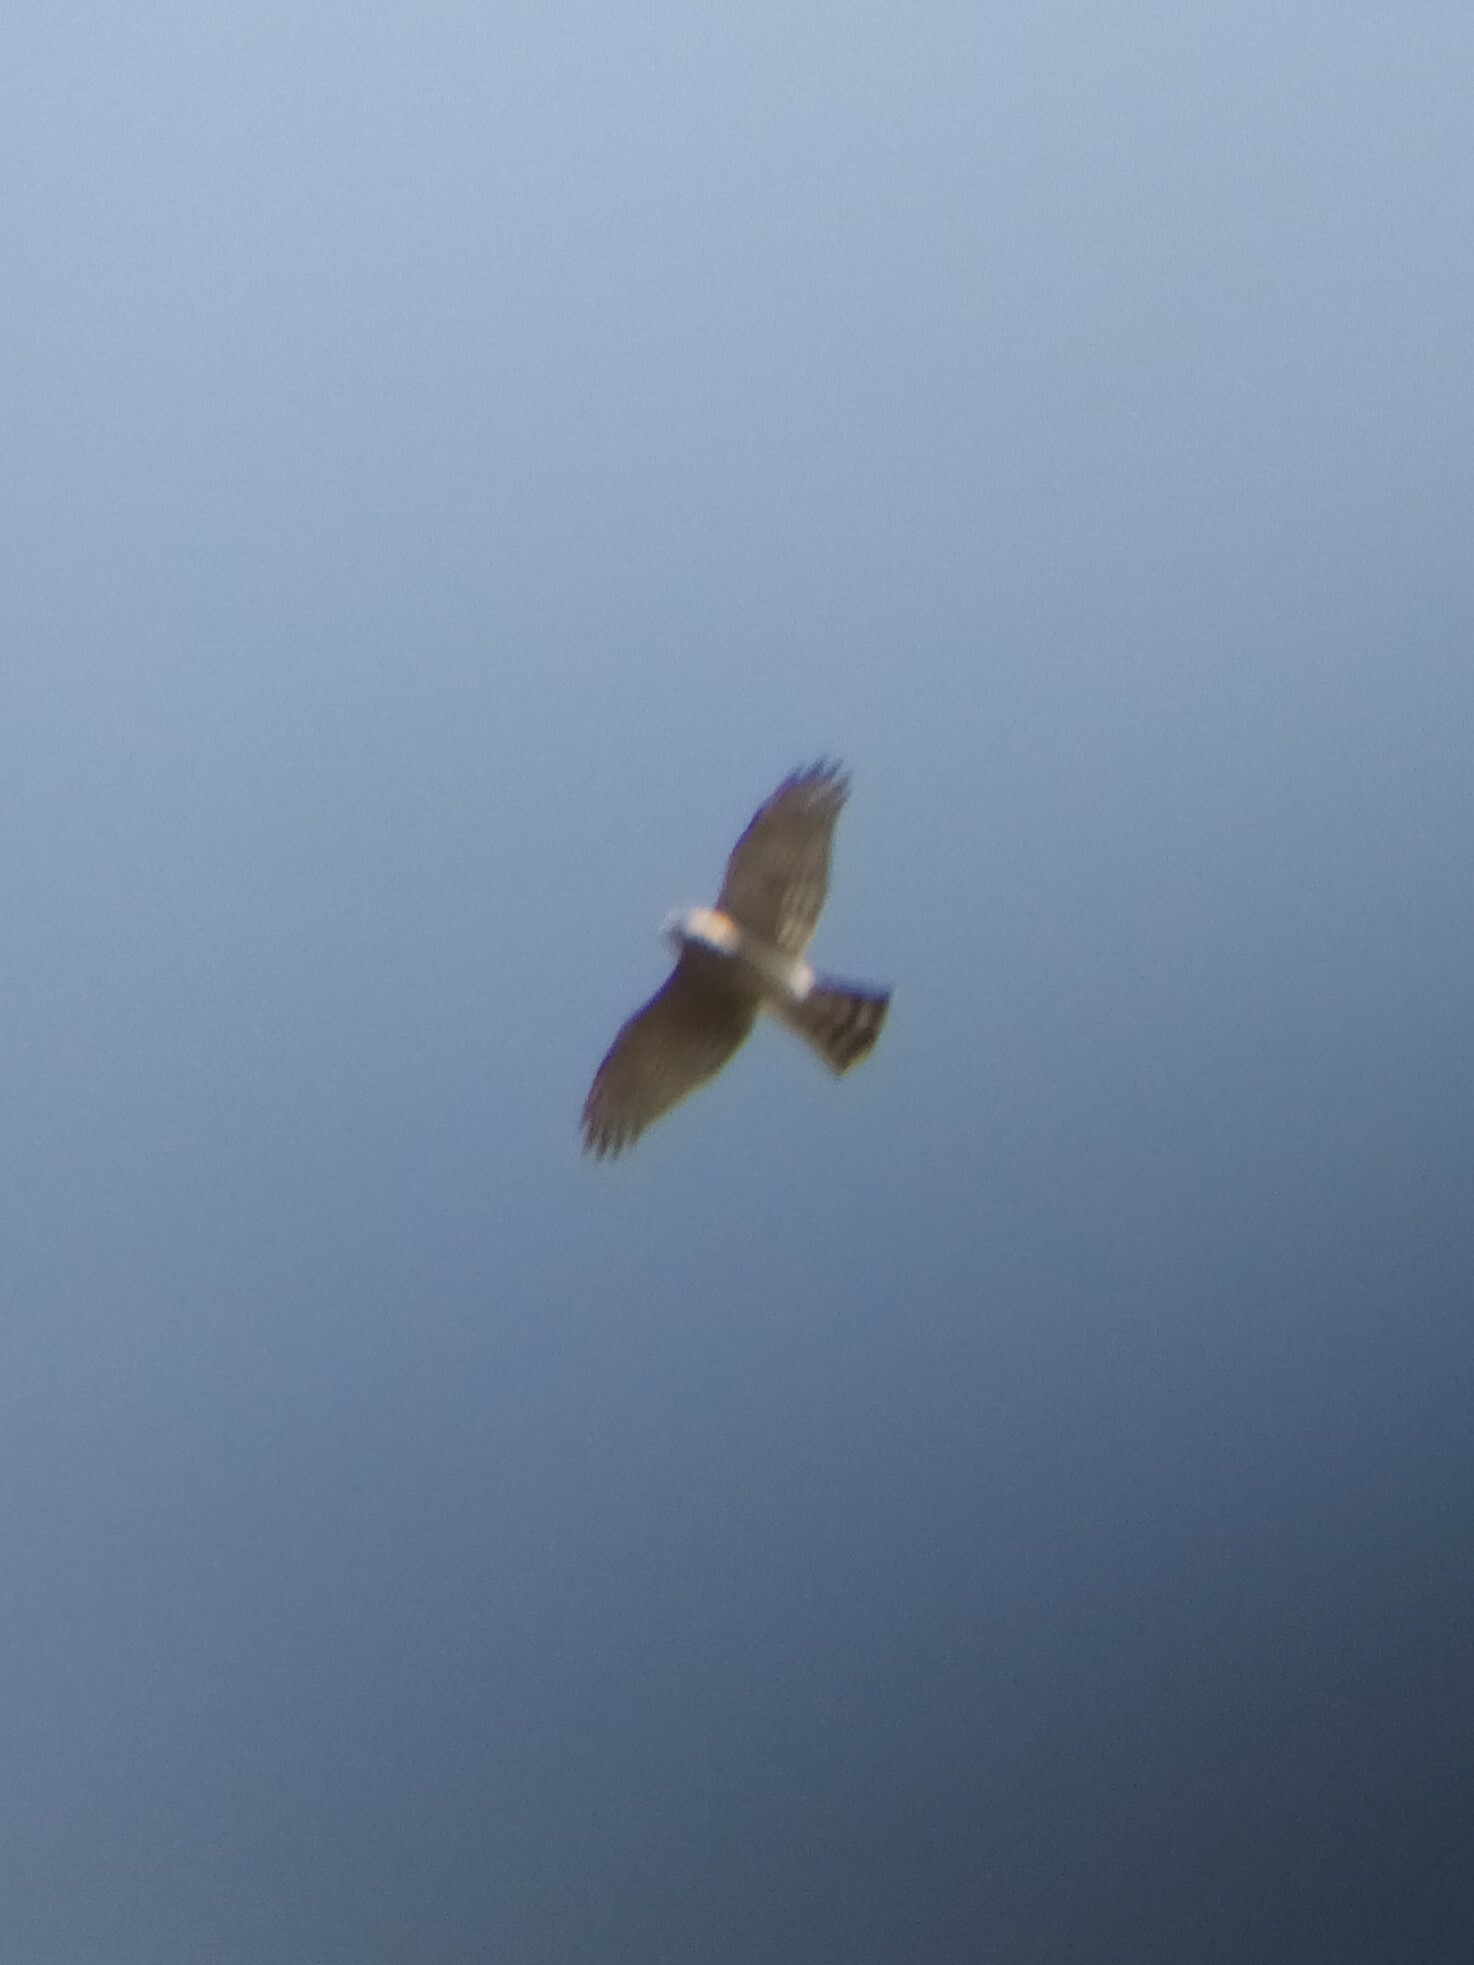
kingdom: Animalia
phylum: Chordata
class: Aves
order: Accipitriformes
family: Accipitridae
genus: Accipiter
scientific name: Accipiter nisus
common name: Eurasian sparrowhawk
